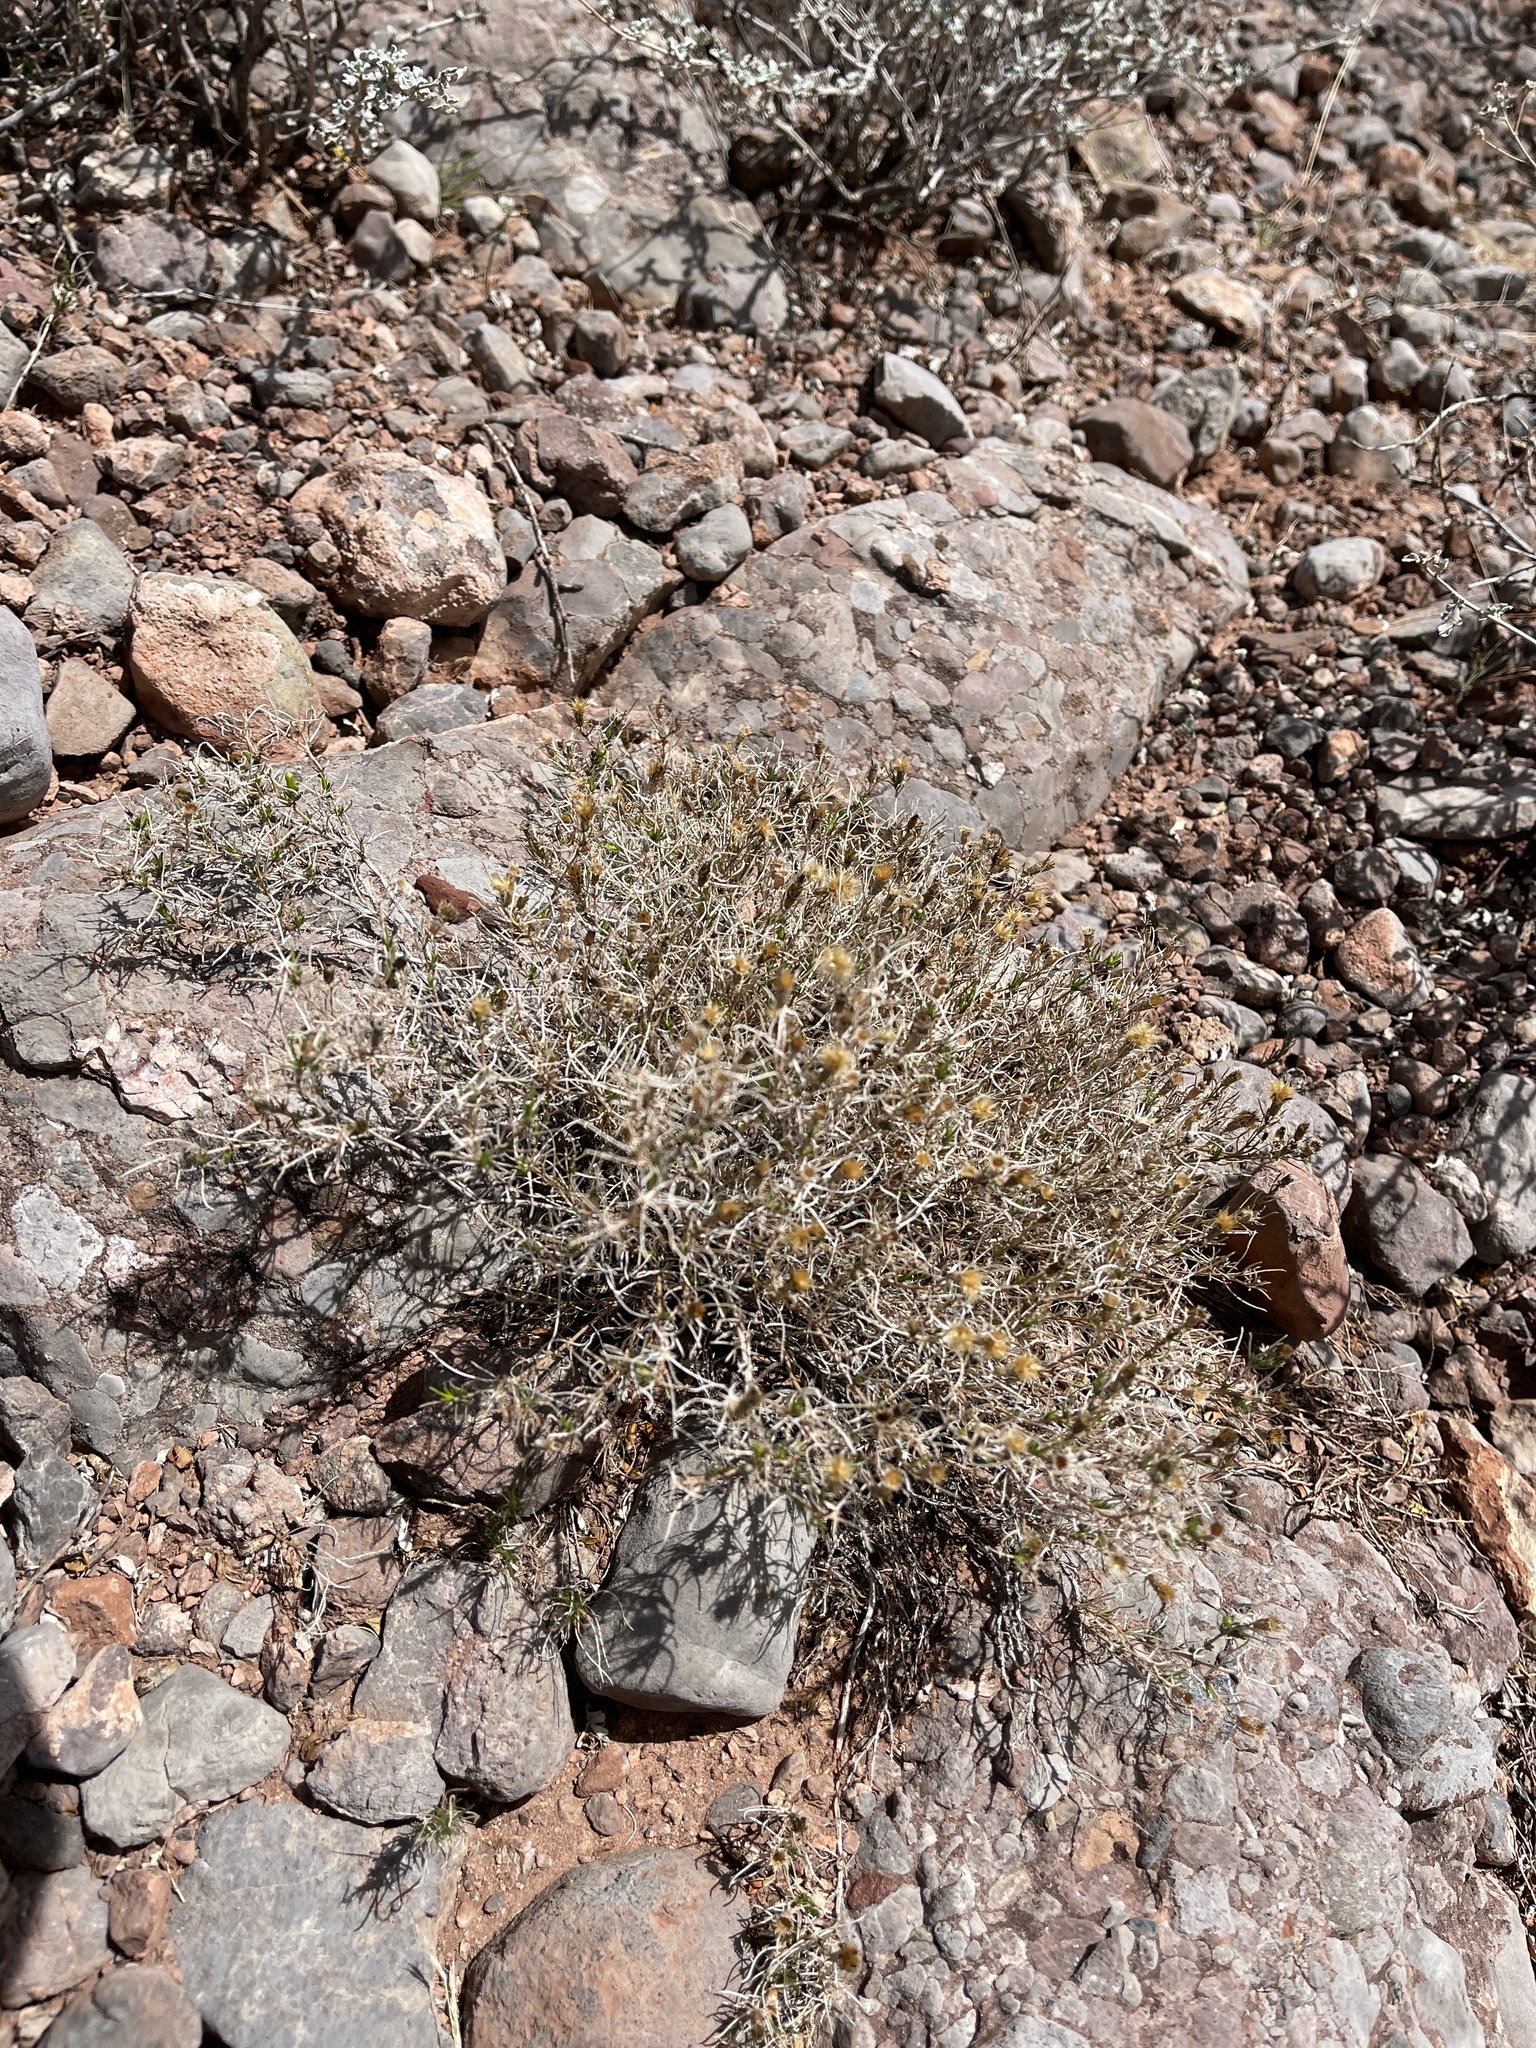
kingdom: Plantae
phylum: Tracheophyta
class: Magnoliopsida
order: Asterales
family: Asteraceae
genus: Thymophylla
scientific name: Thymophylla acerosa
